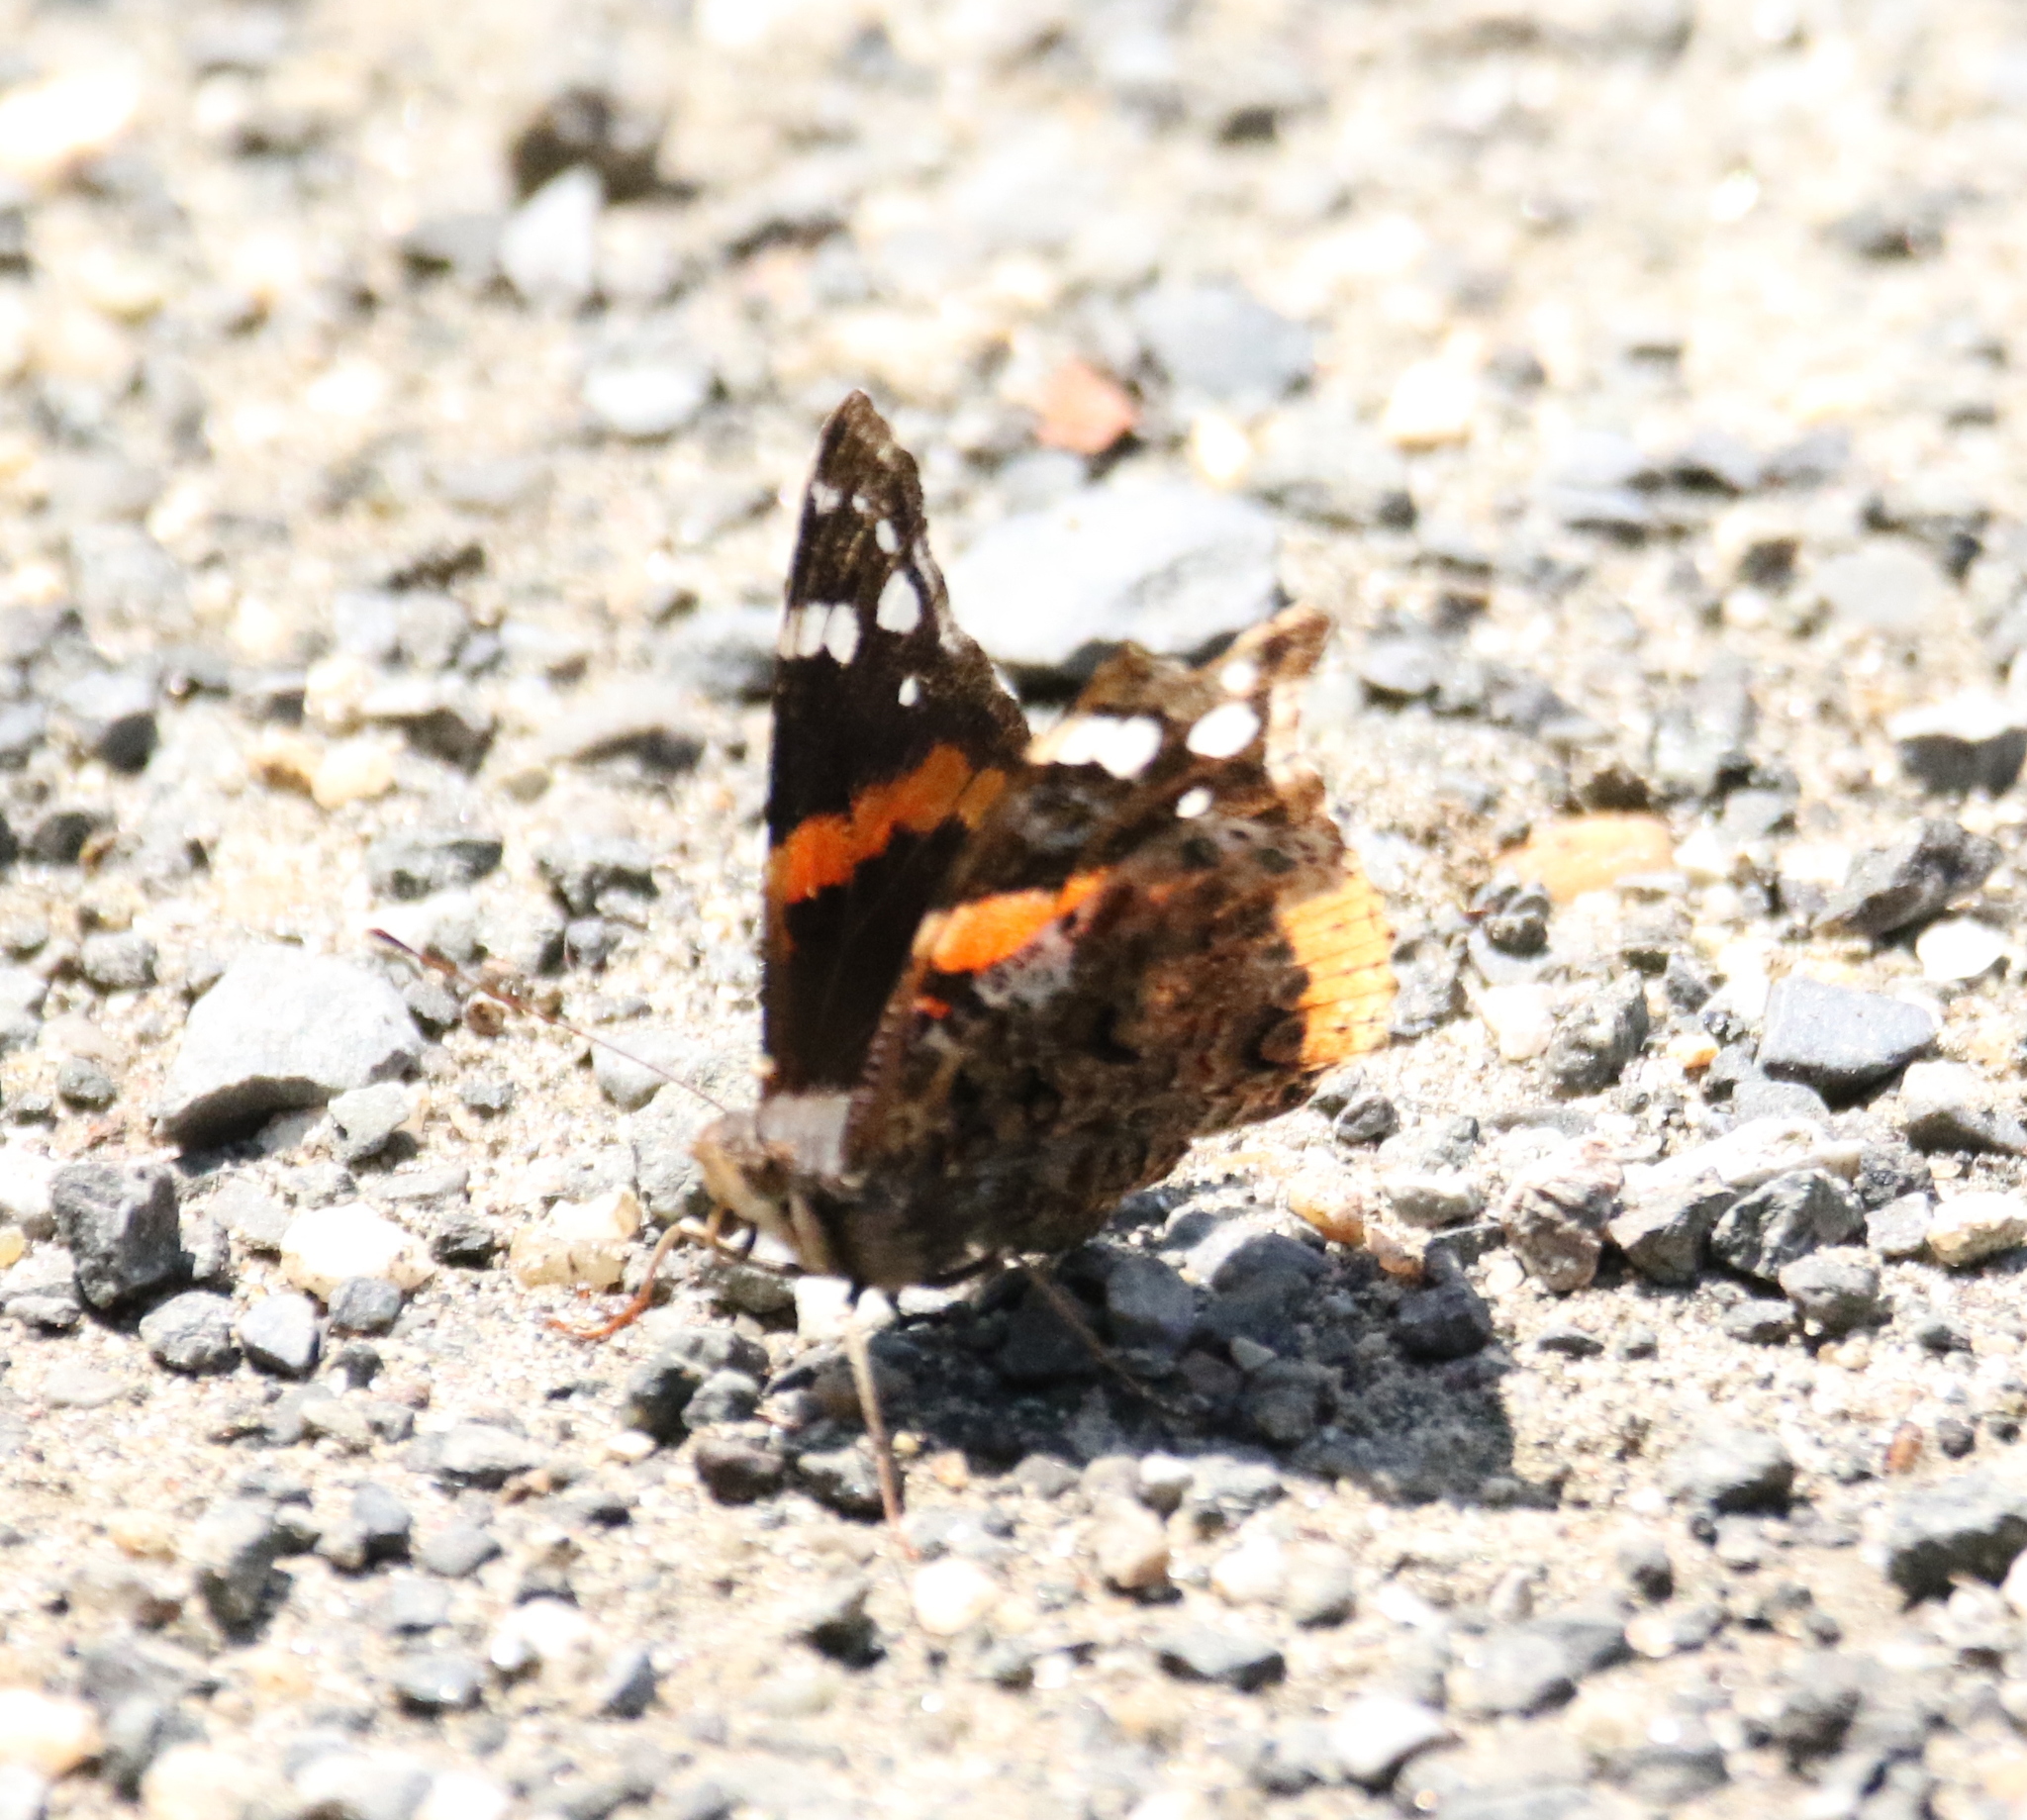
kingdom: Animalia
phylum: Arthropoda
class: Insecta
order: Lepidoptera
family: Nymphalidae
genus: Vanessa
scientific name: Vanessa atalanta
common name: Red admiral
